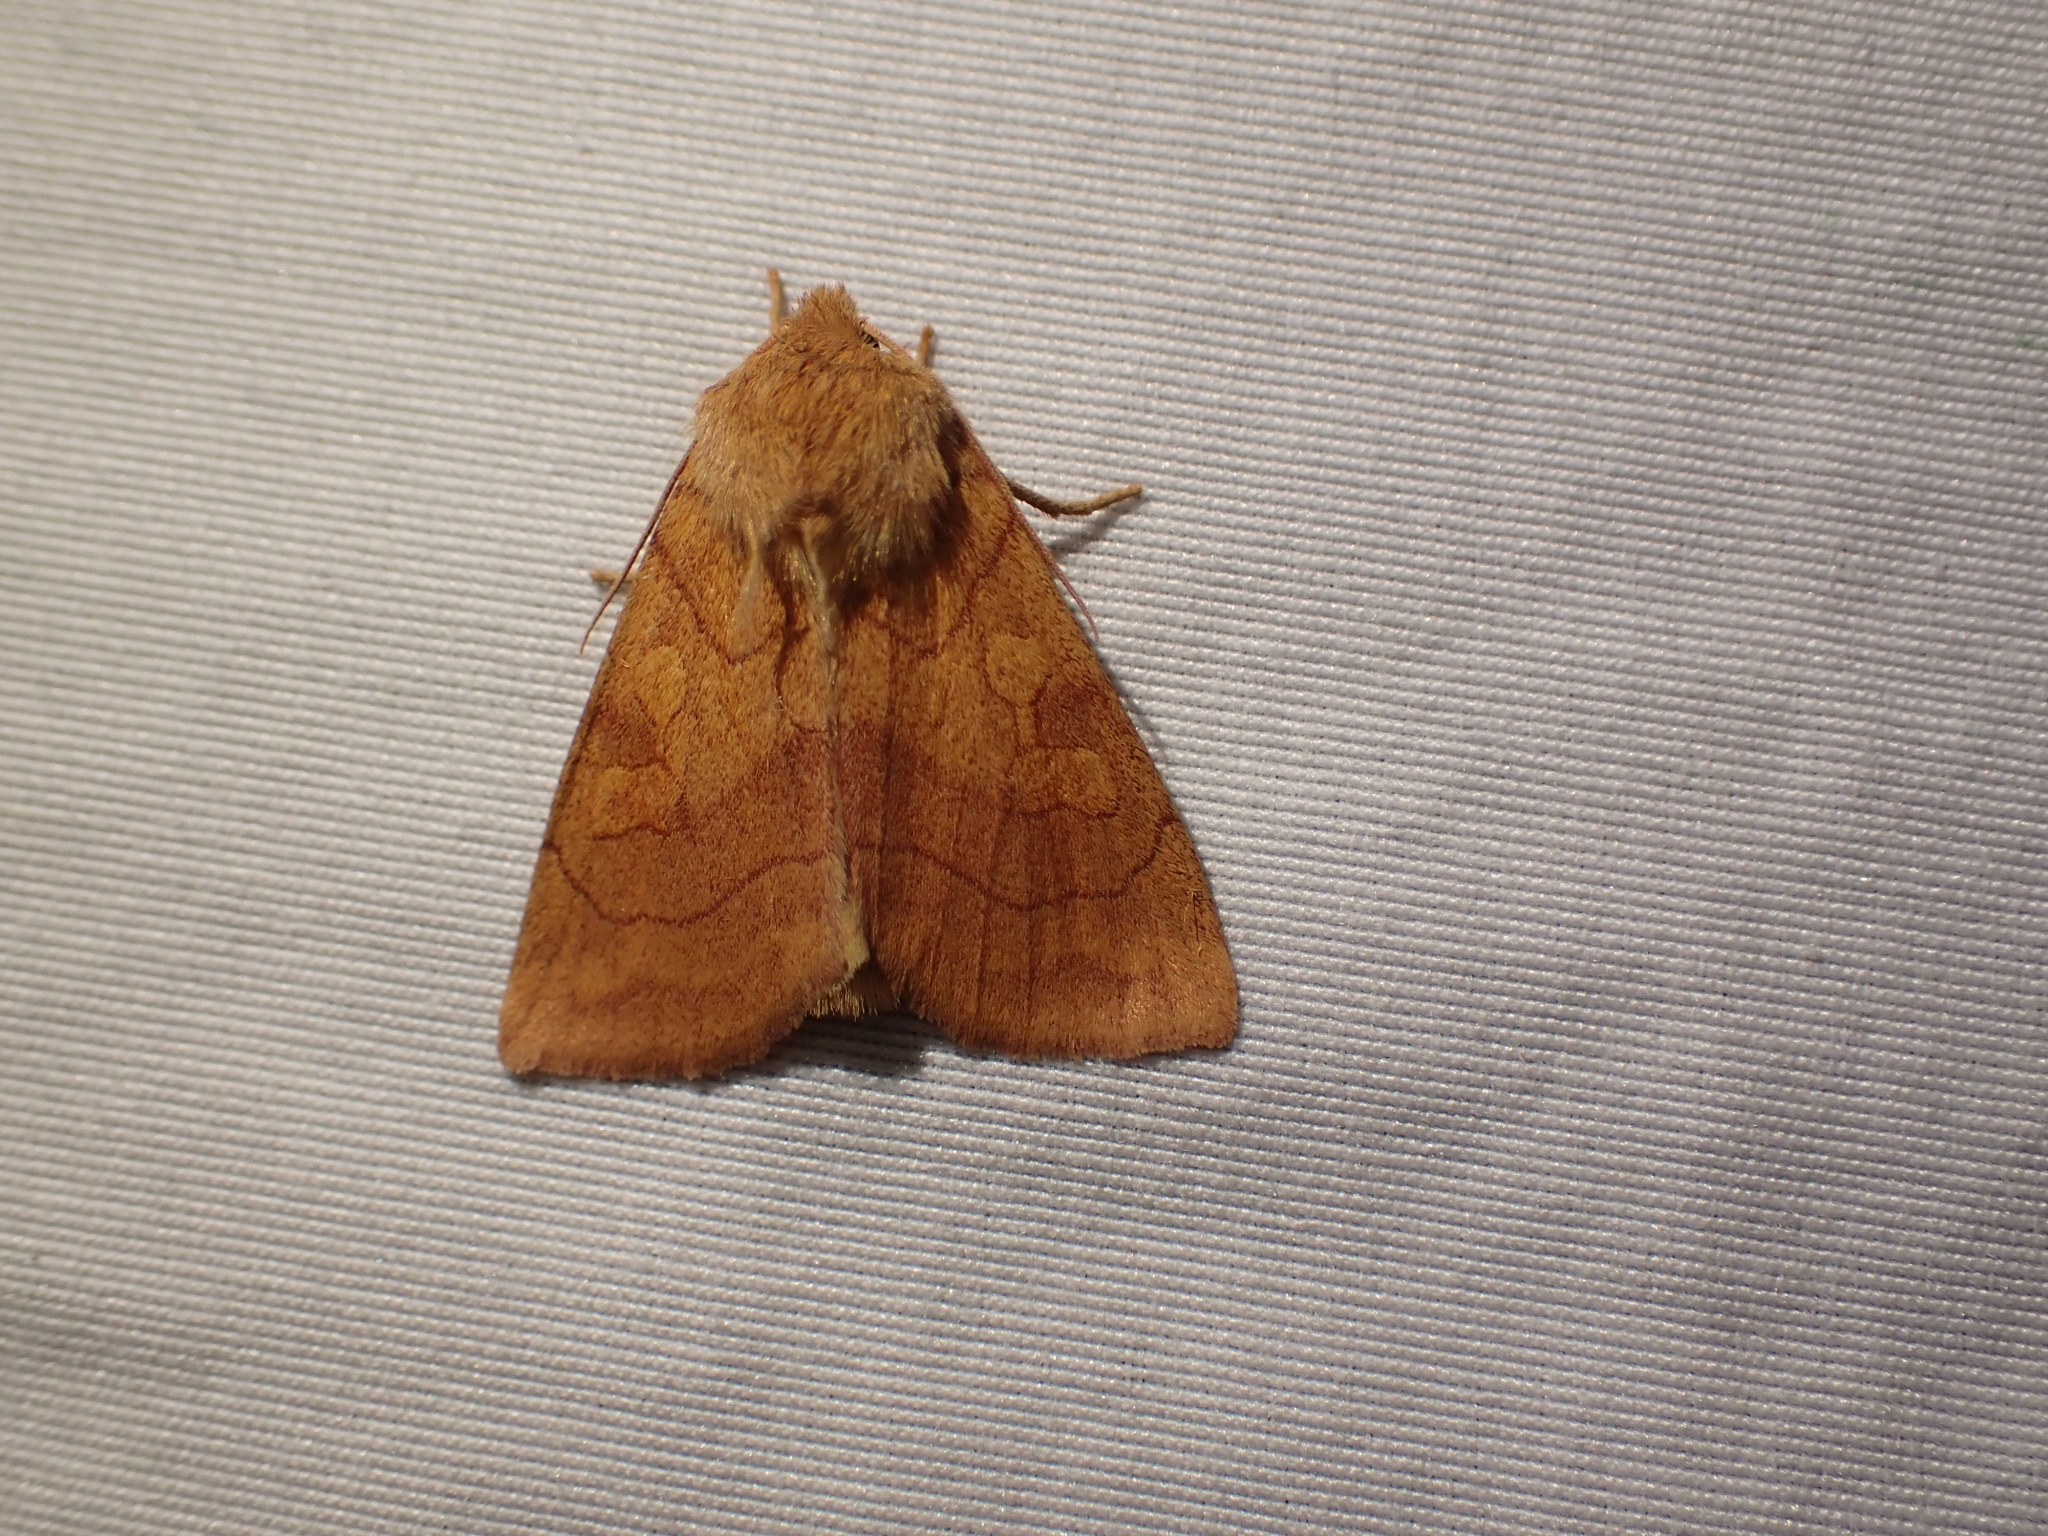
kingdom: Animalia
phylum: Arthropoda
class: Insecta
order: Lepidoptera
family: Noctuidae
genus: Enargia
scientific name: Enargia decolor
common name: Aspen twoleaf tier moth
